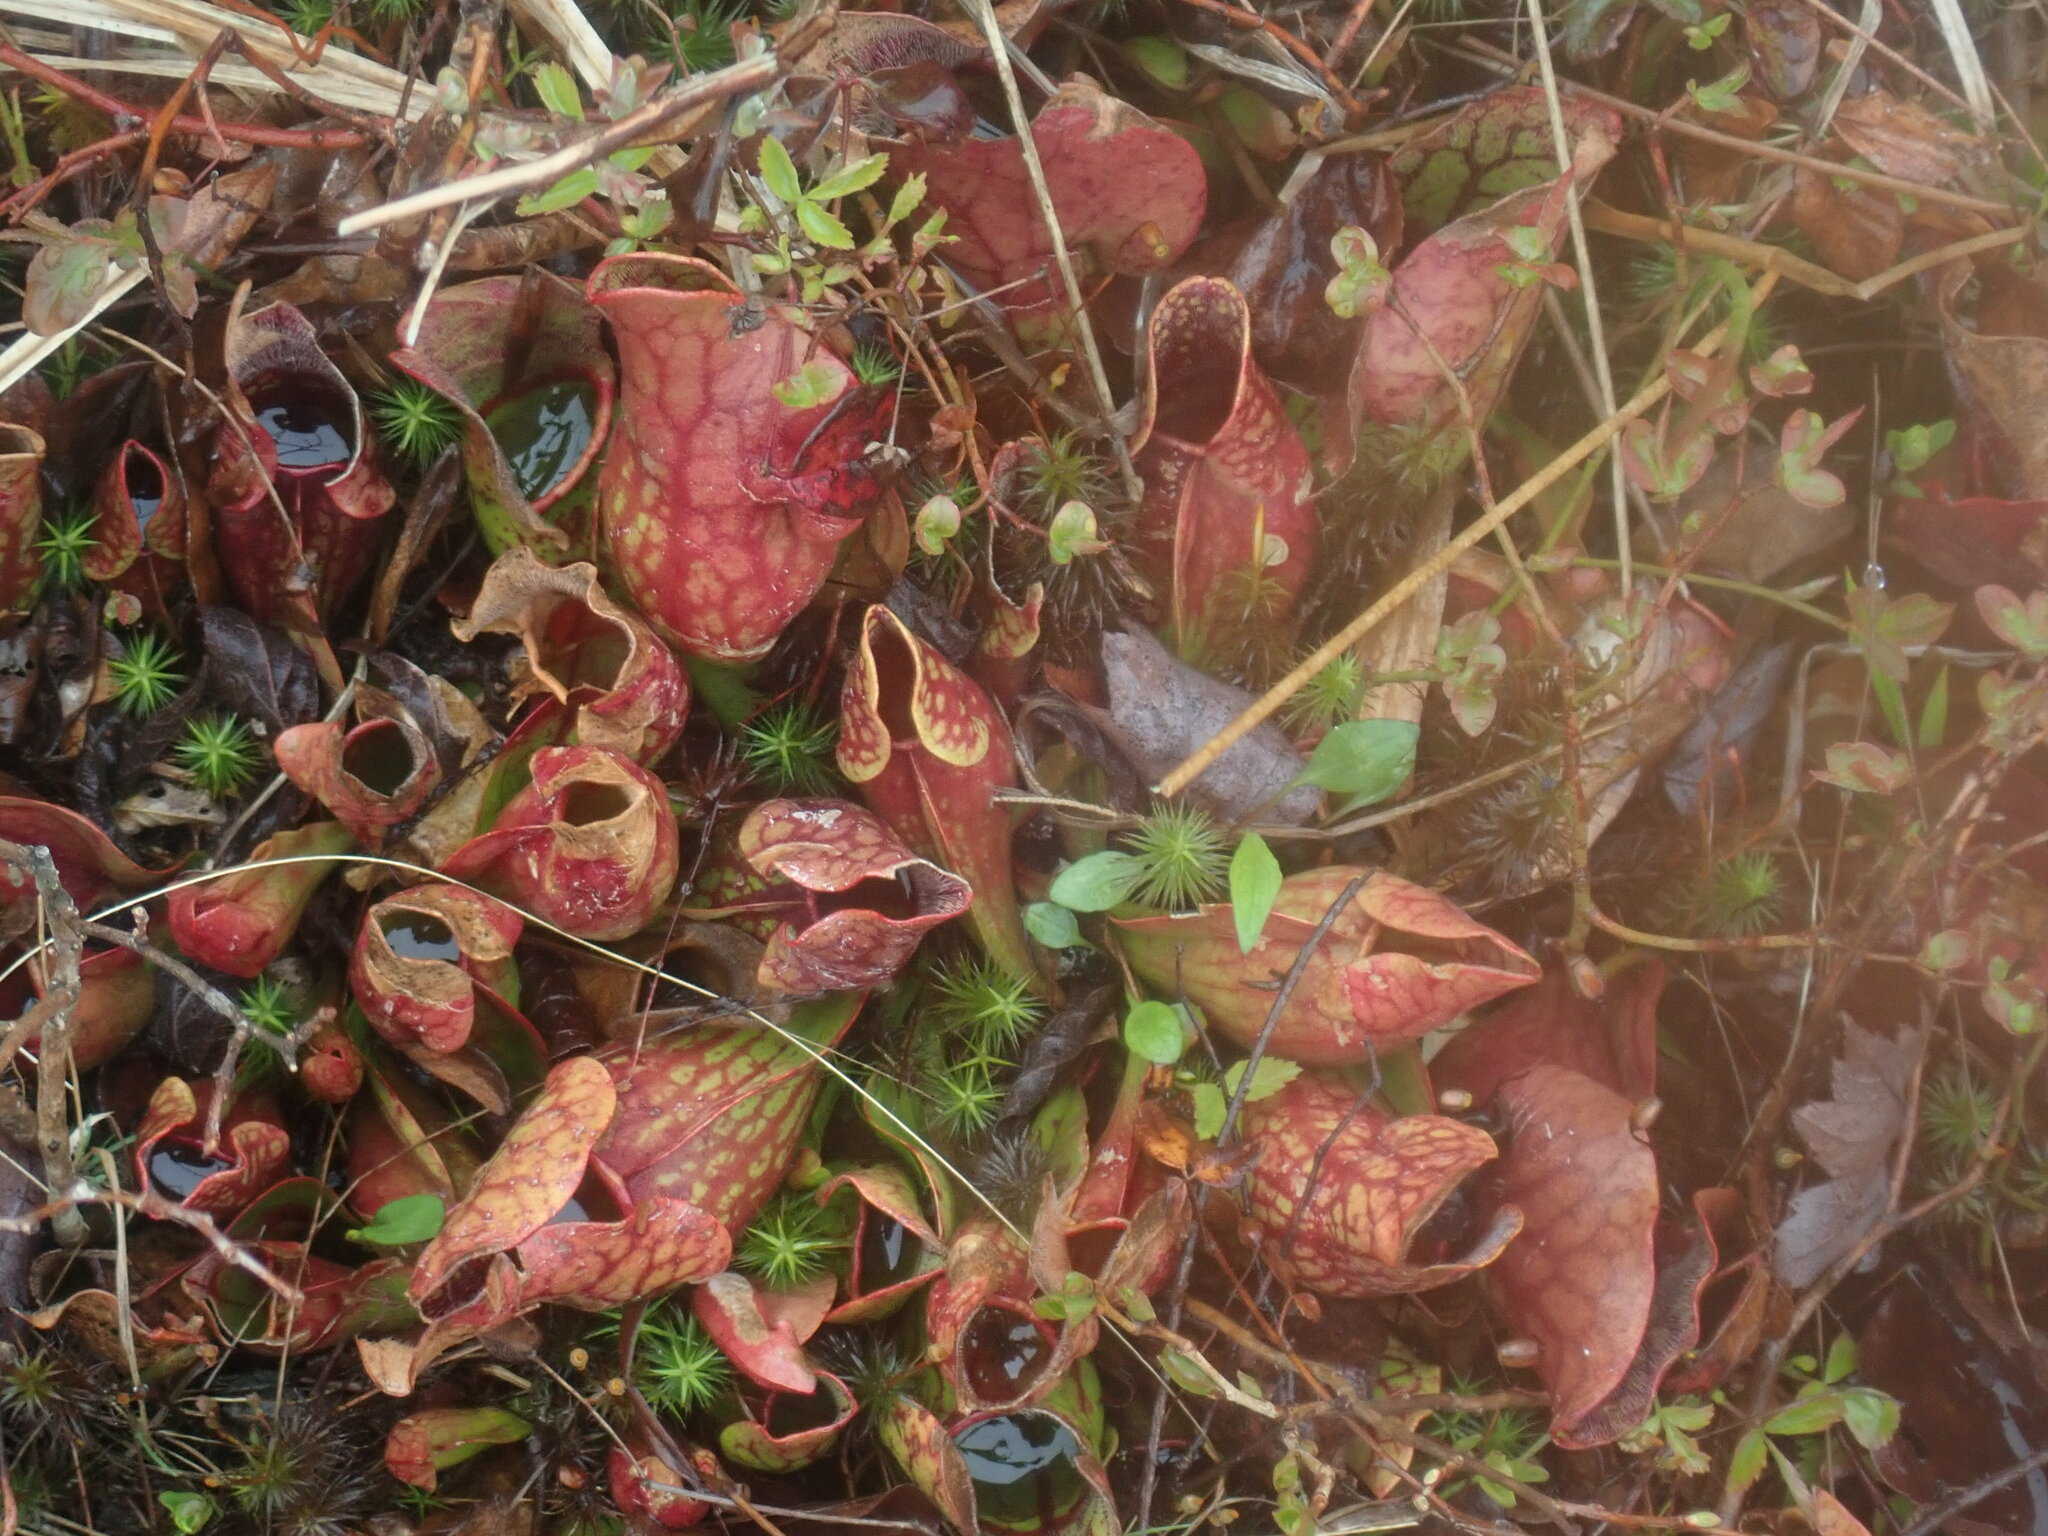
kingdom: Plantae
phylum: Tracheophyta
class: Magnoliopsida
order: Ericales
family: Sarraceniaceae
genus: Sarracenia
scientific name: Sarracenia purpurea
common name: Pitcherplant
